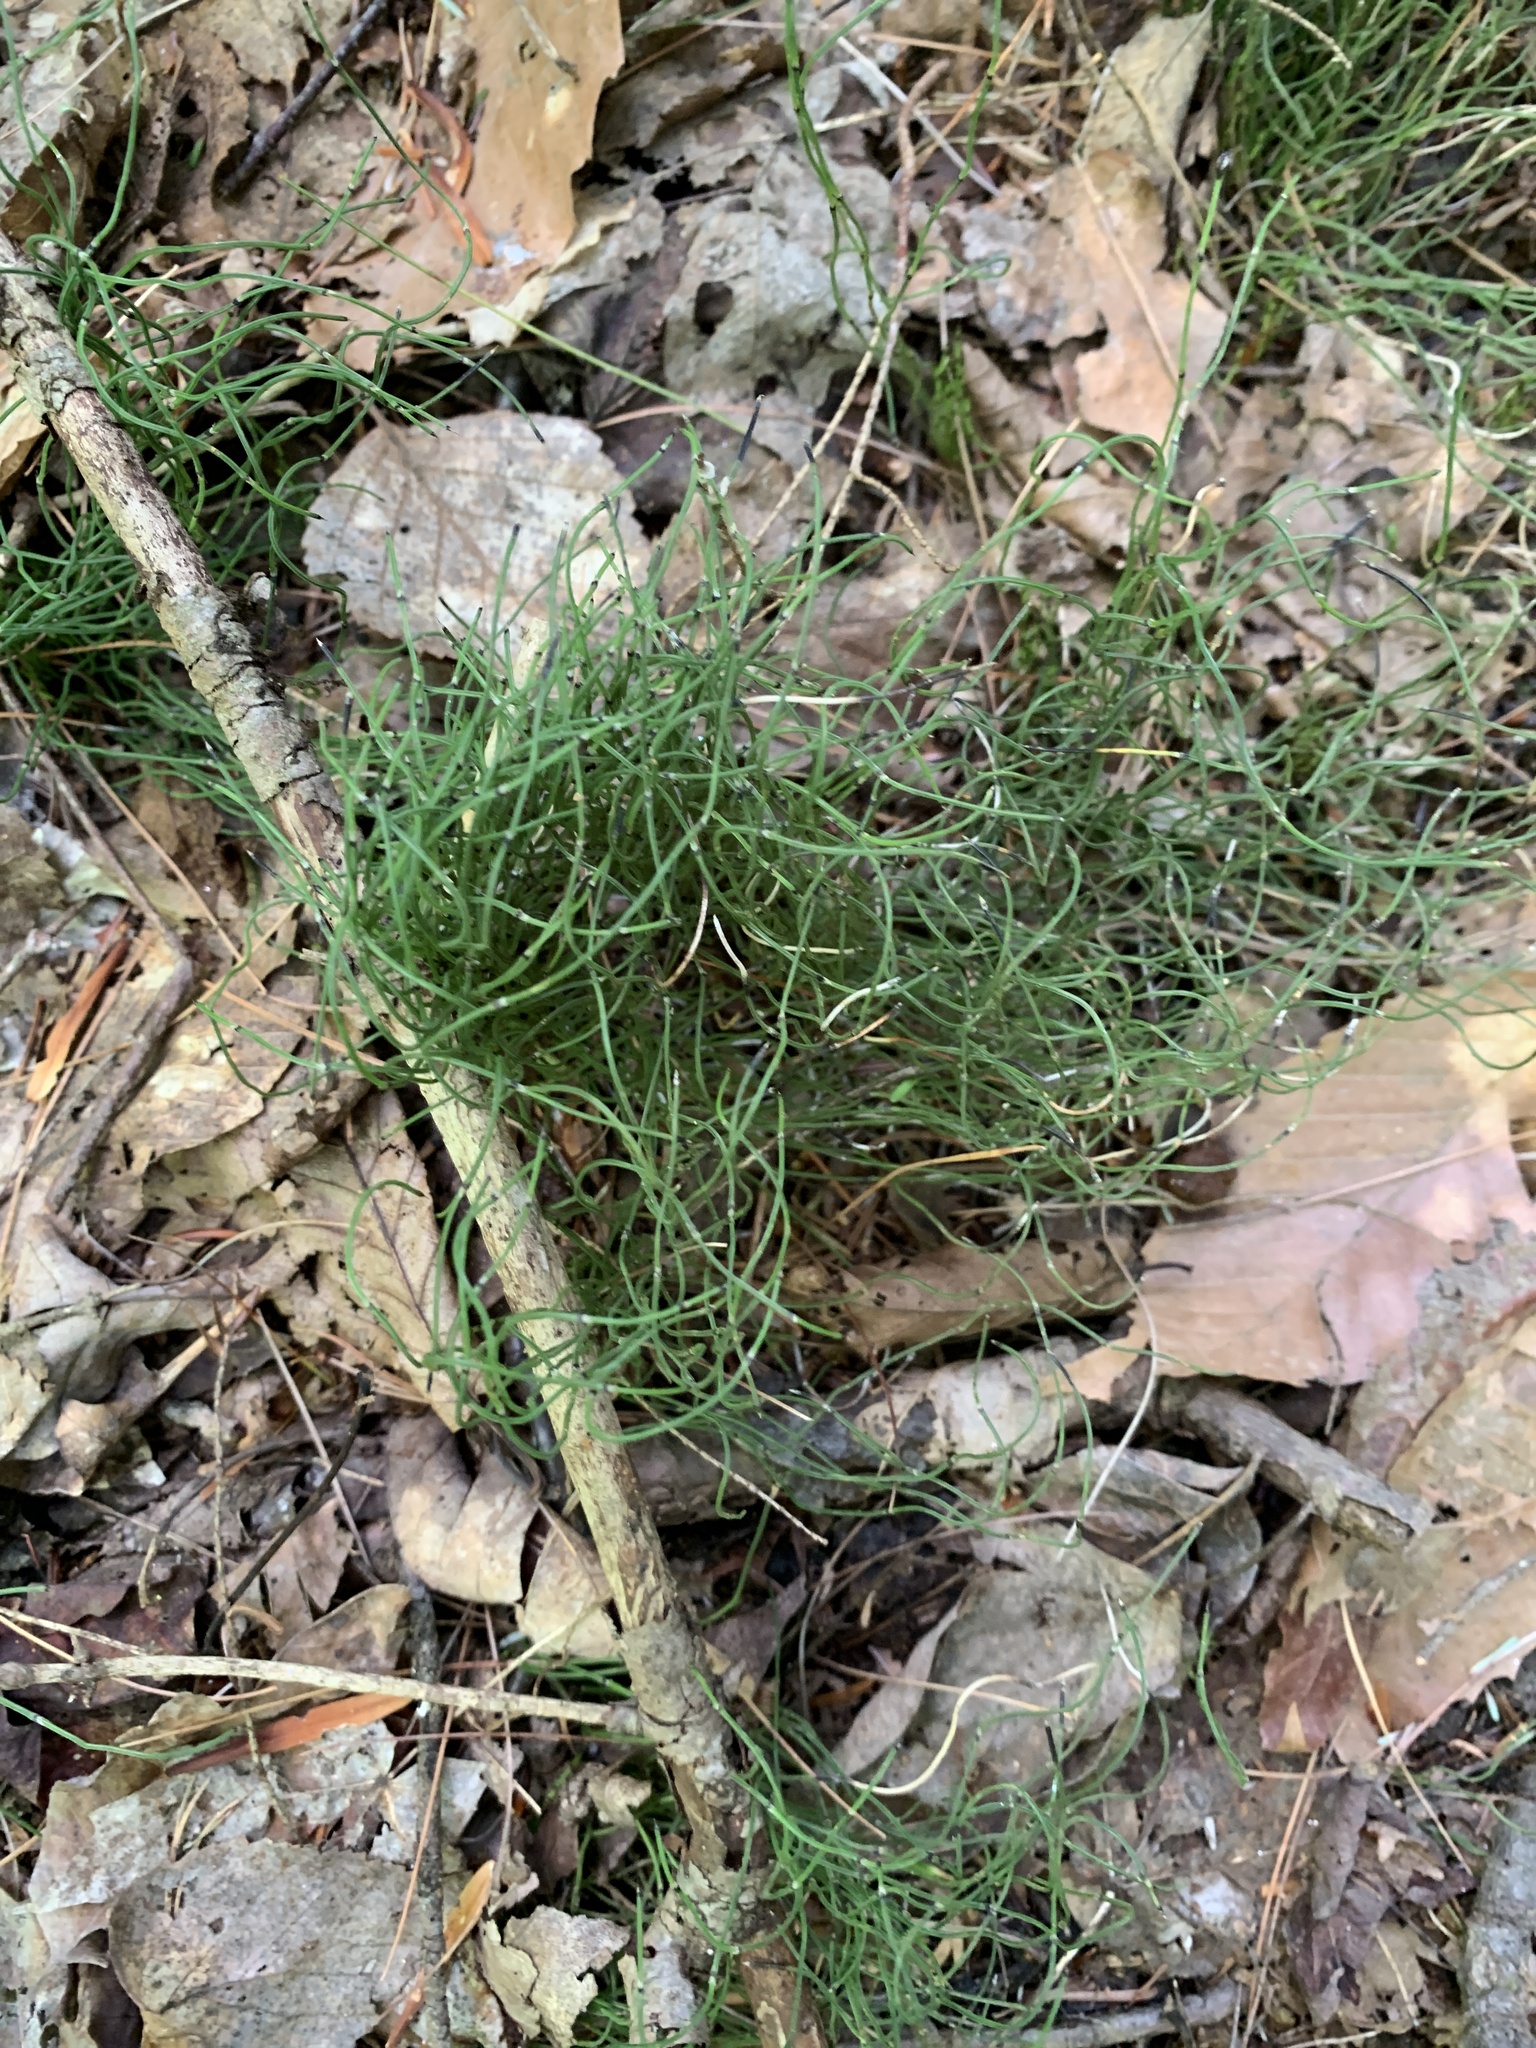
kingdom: Plantae
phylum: Tracheophyta
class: Polypodiopsida
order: Equisetales
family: Equisetaceae
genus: Equisetum
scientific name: Equisetum scirpoides
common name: Delicate horsetail
